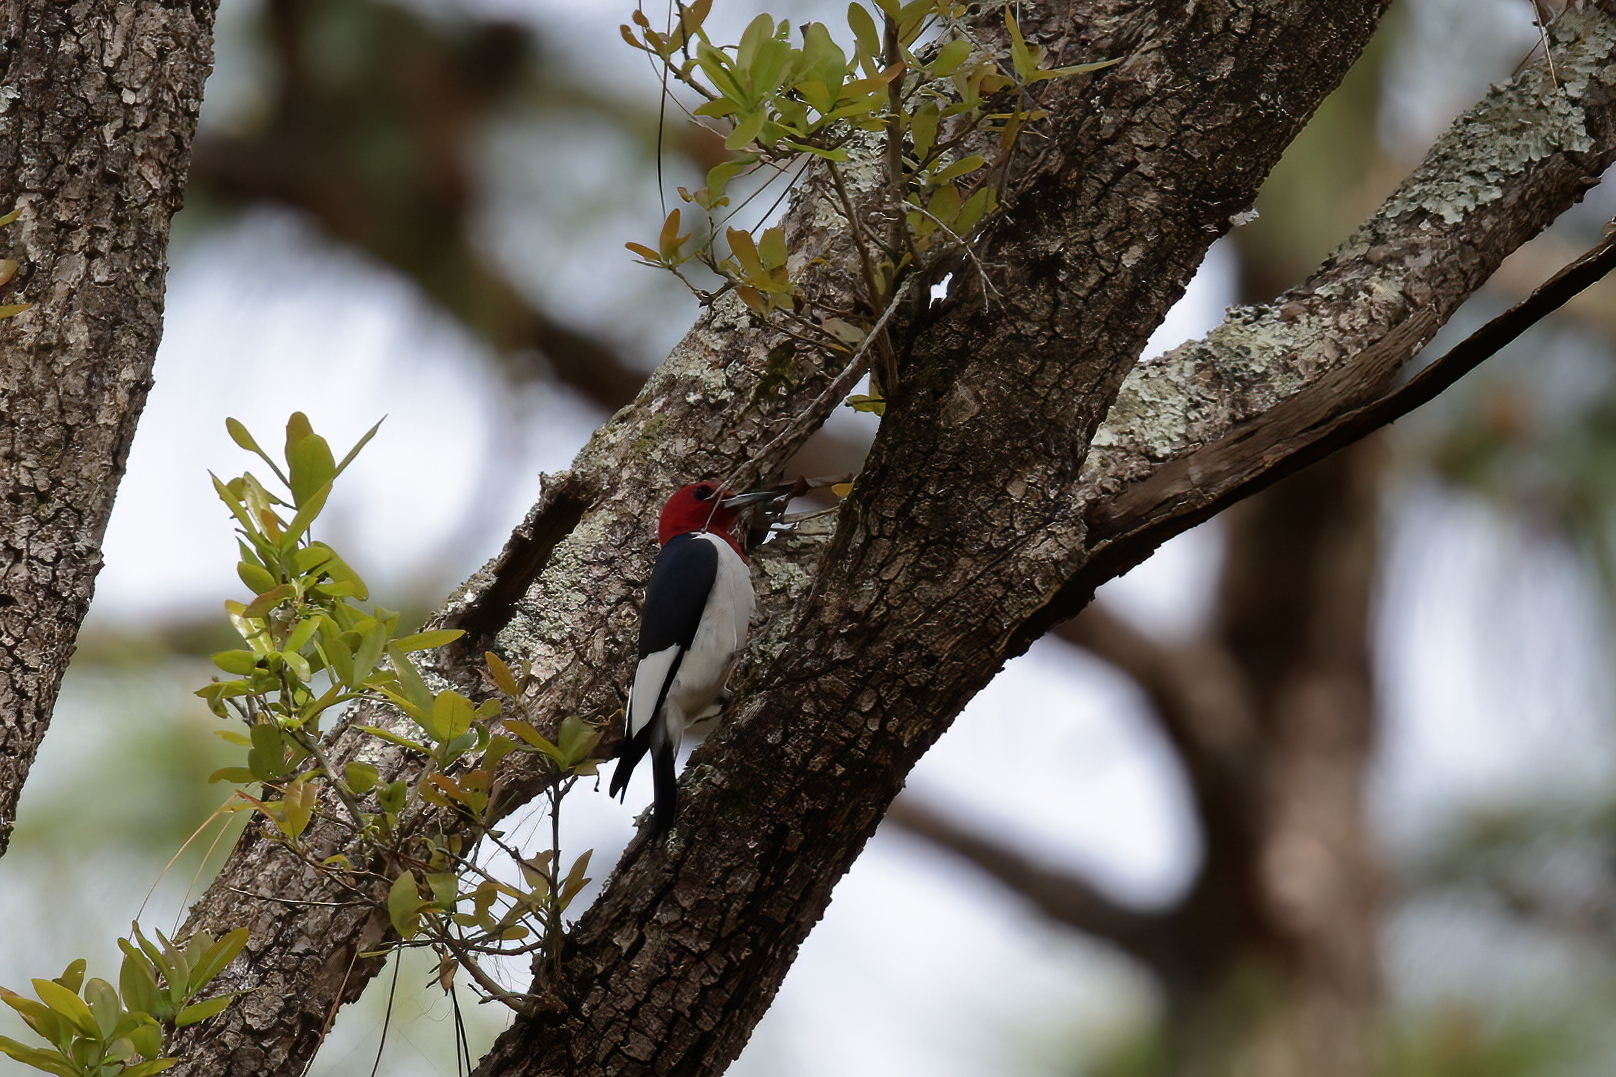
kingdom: Animalia
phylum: Chordata
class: Aves
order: Piciformes
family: Picidae
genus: Melanerpes
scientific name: Melanerpes erythrocephalus
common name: Red-headed woodpecker
